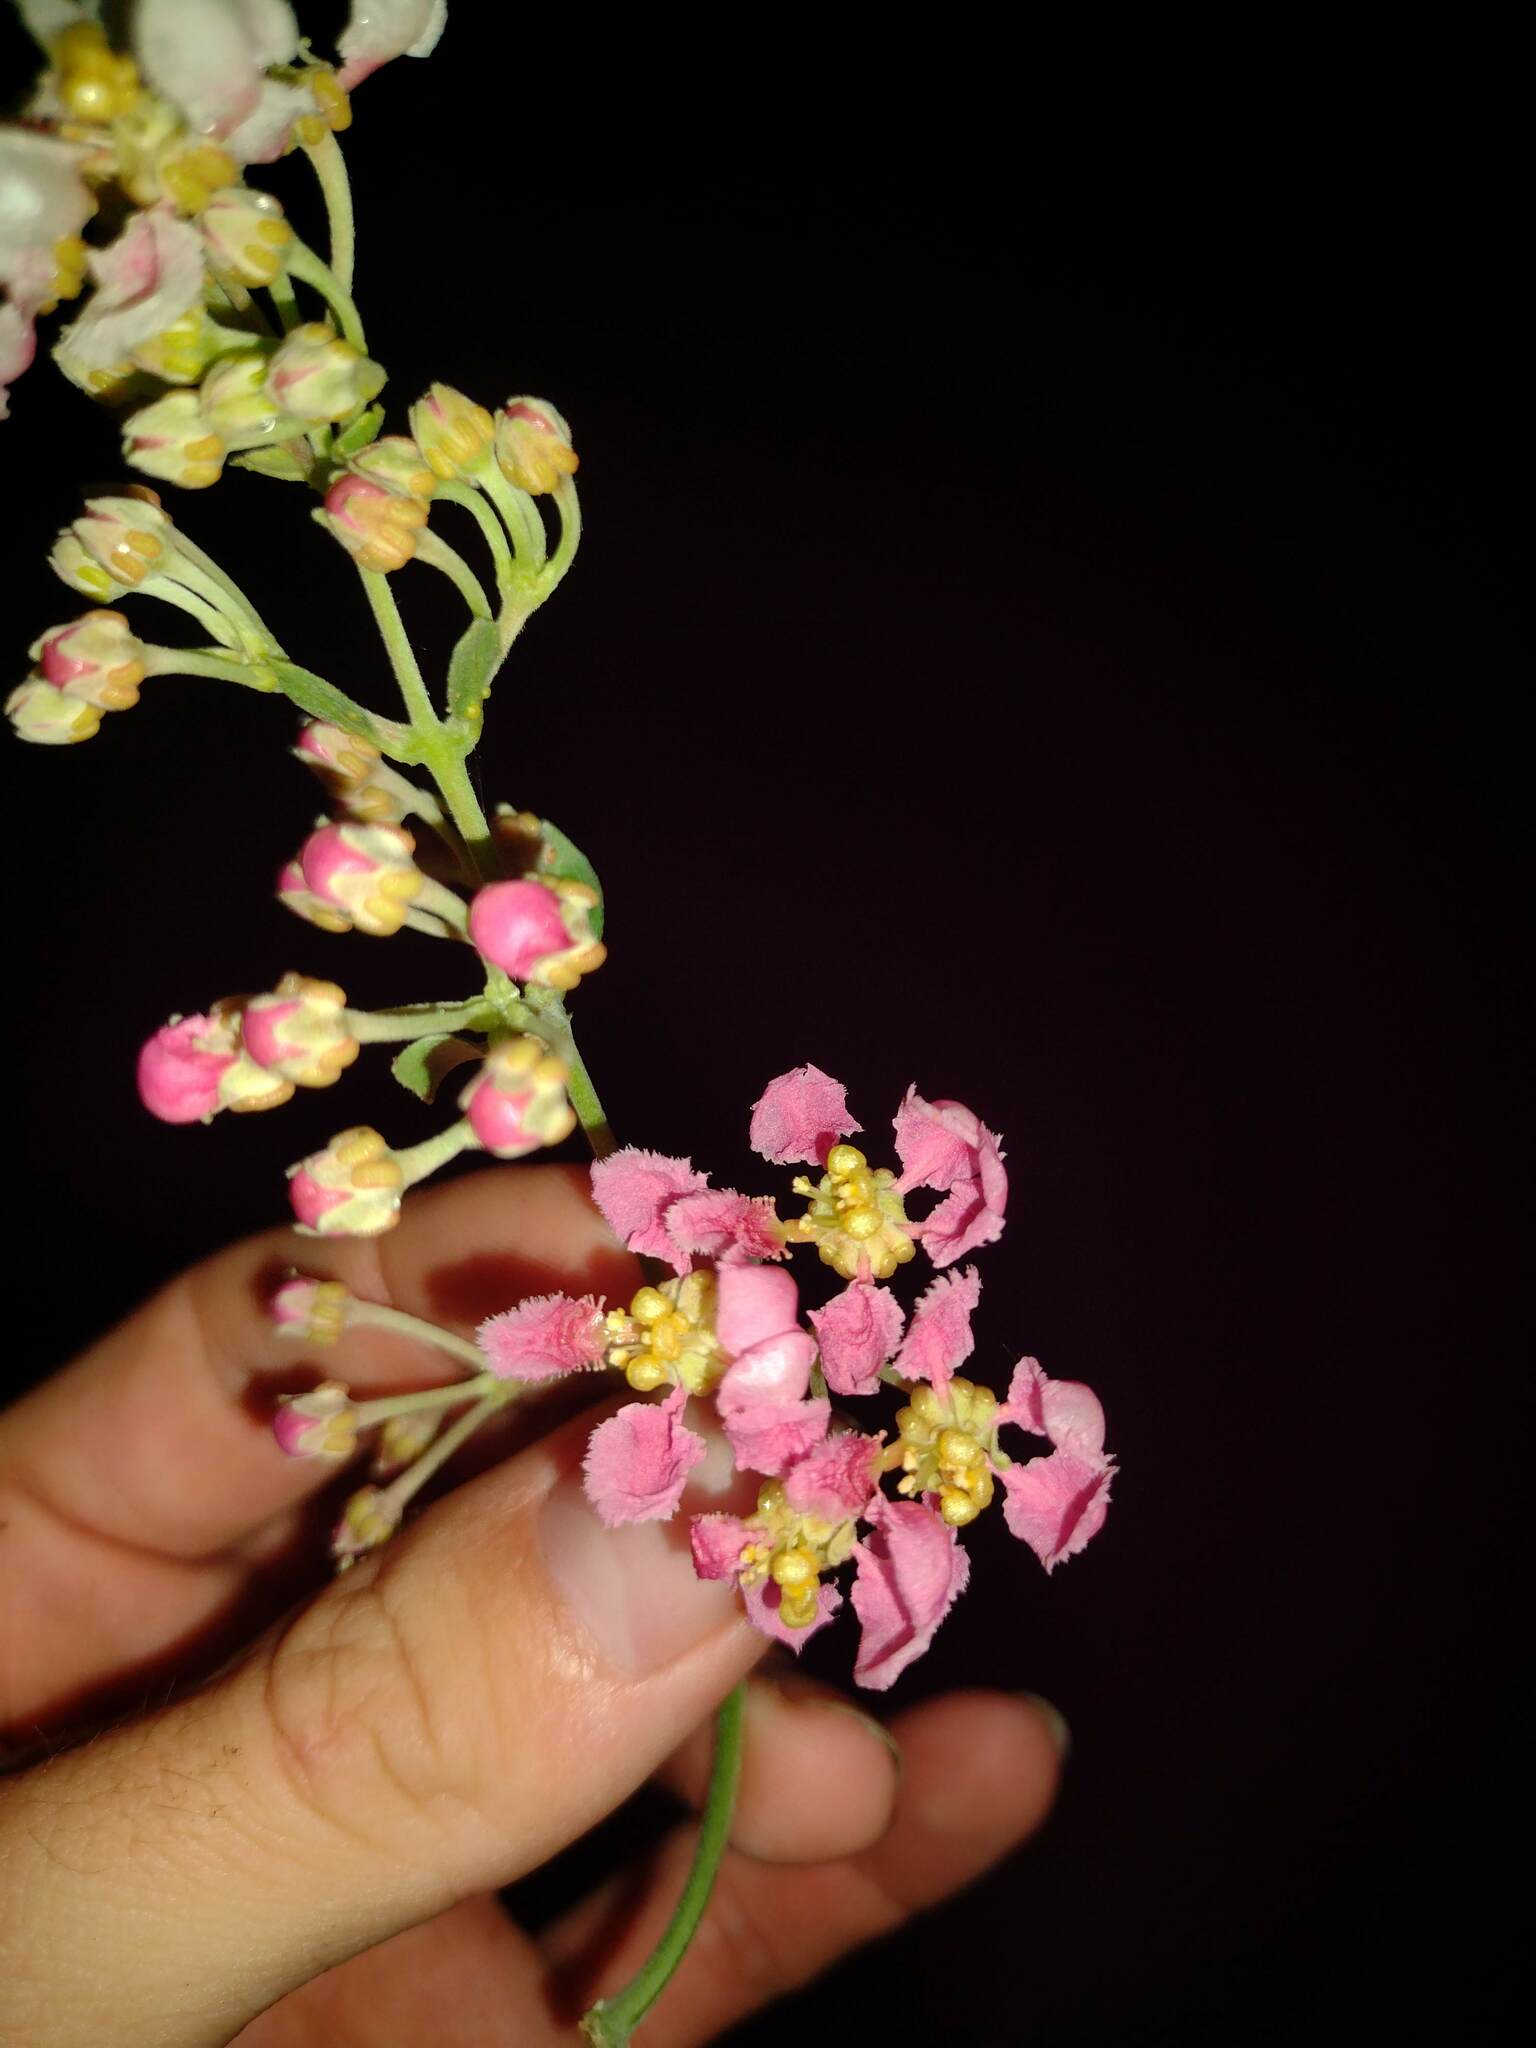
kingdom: Plantae
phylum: Tracheophyta
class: Magnoliopsida
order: Malpighiales
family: Malpighiaceae
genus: Banisteriopsis
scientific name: Banisteriopsis caapi
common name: Soulvine
